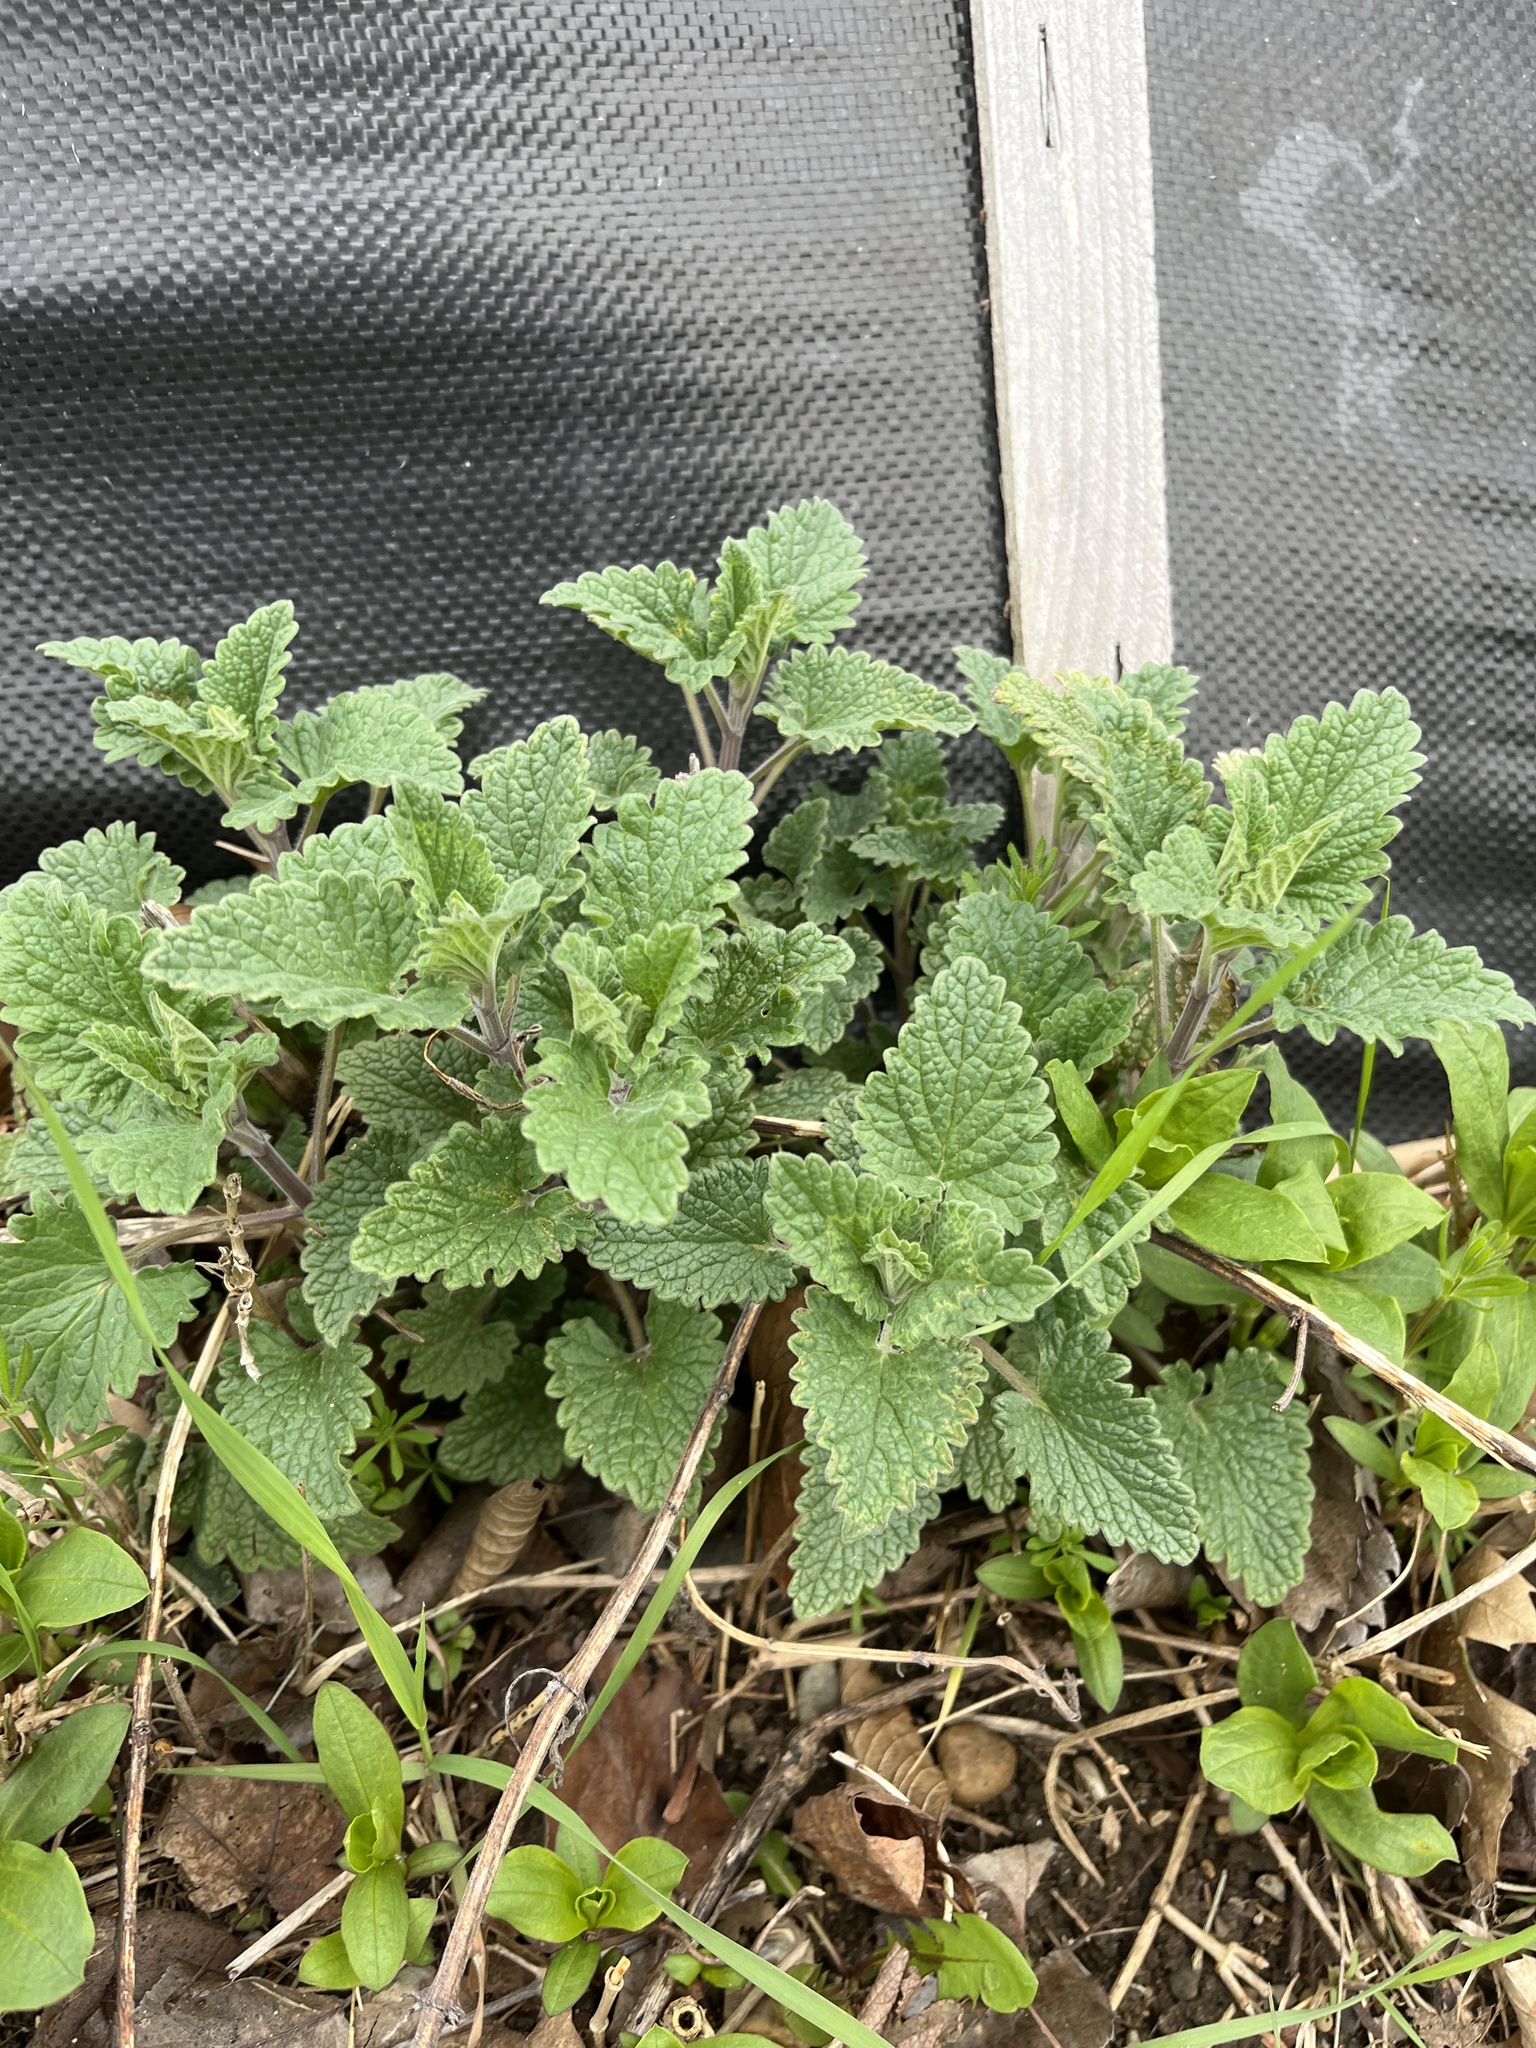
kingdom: Plantae
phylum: Tracheophyta
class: Magnoliopsida
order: Lamiales
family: Lamiaceae
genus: Nepeta
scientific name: Nepeta cataria
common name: Catnip
